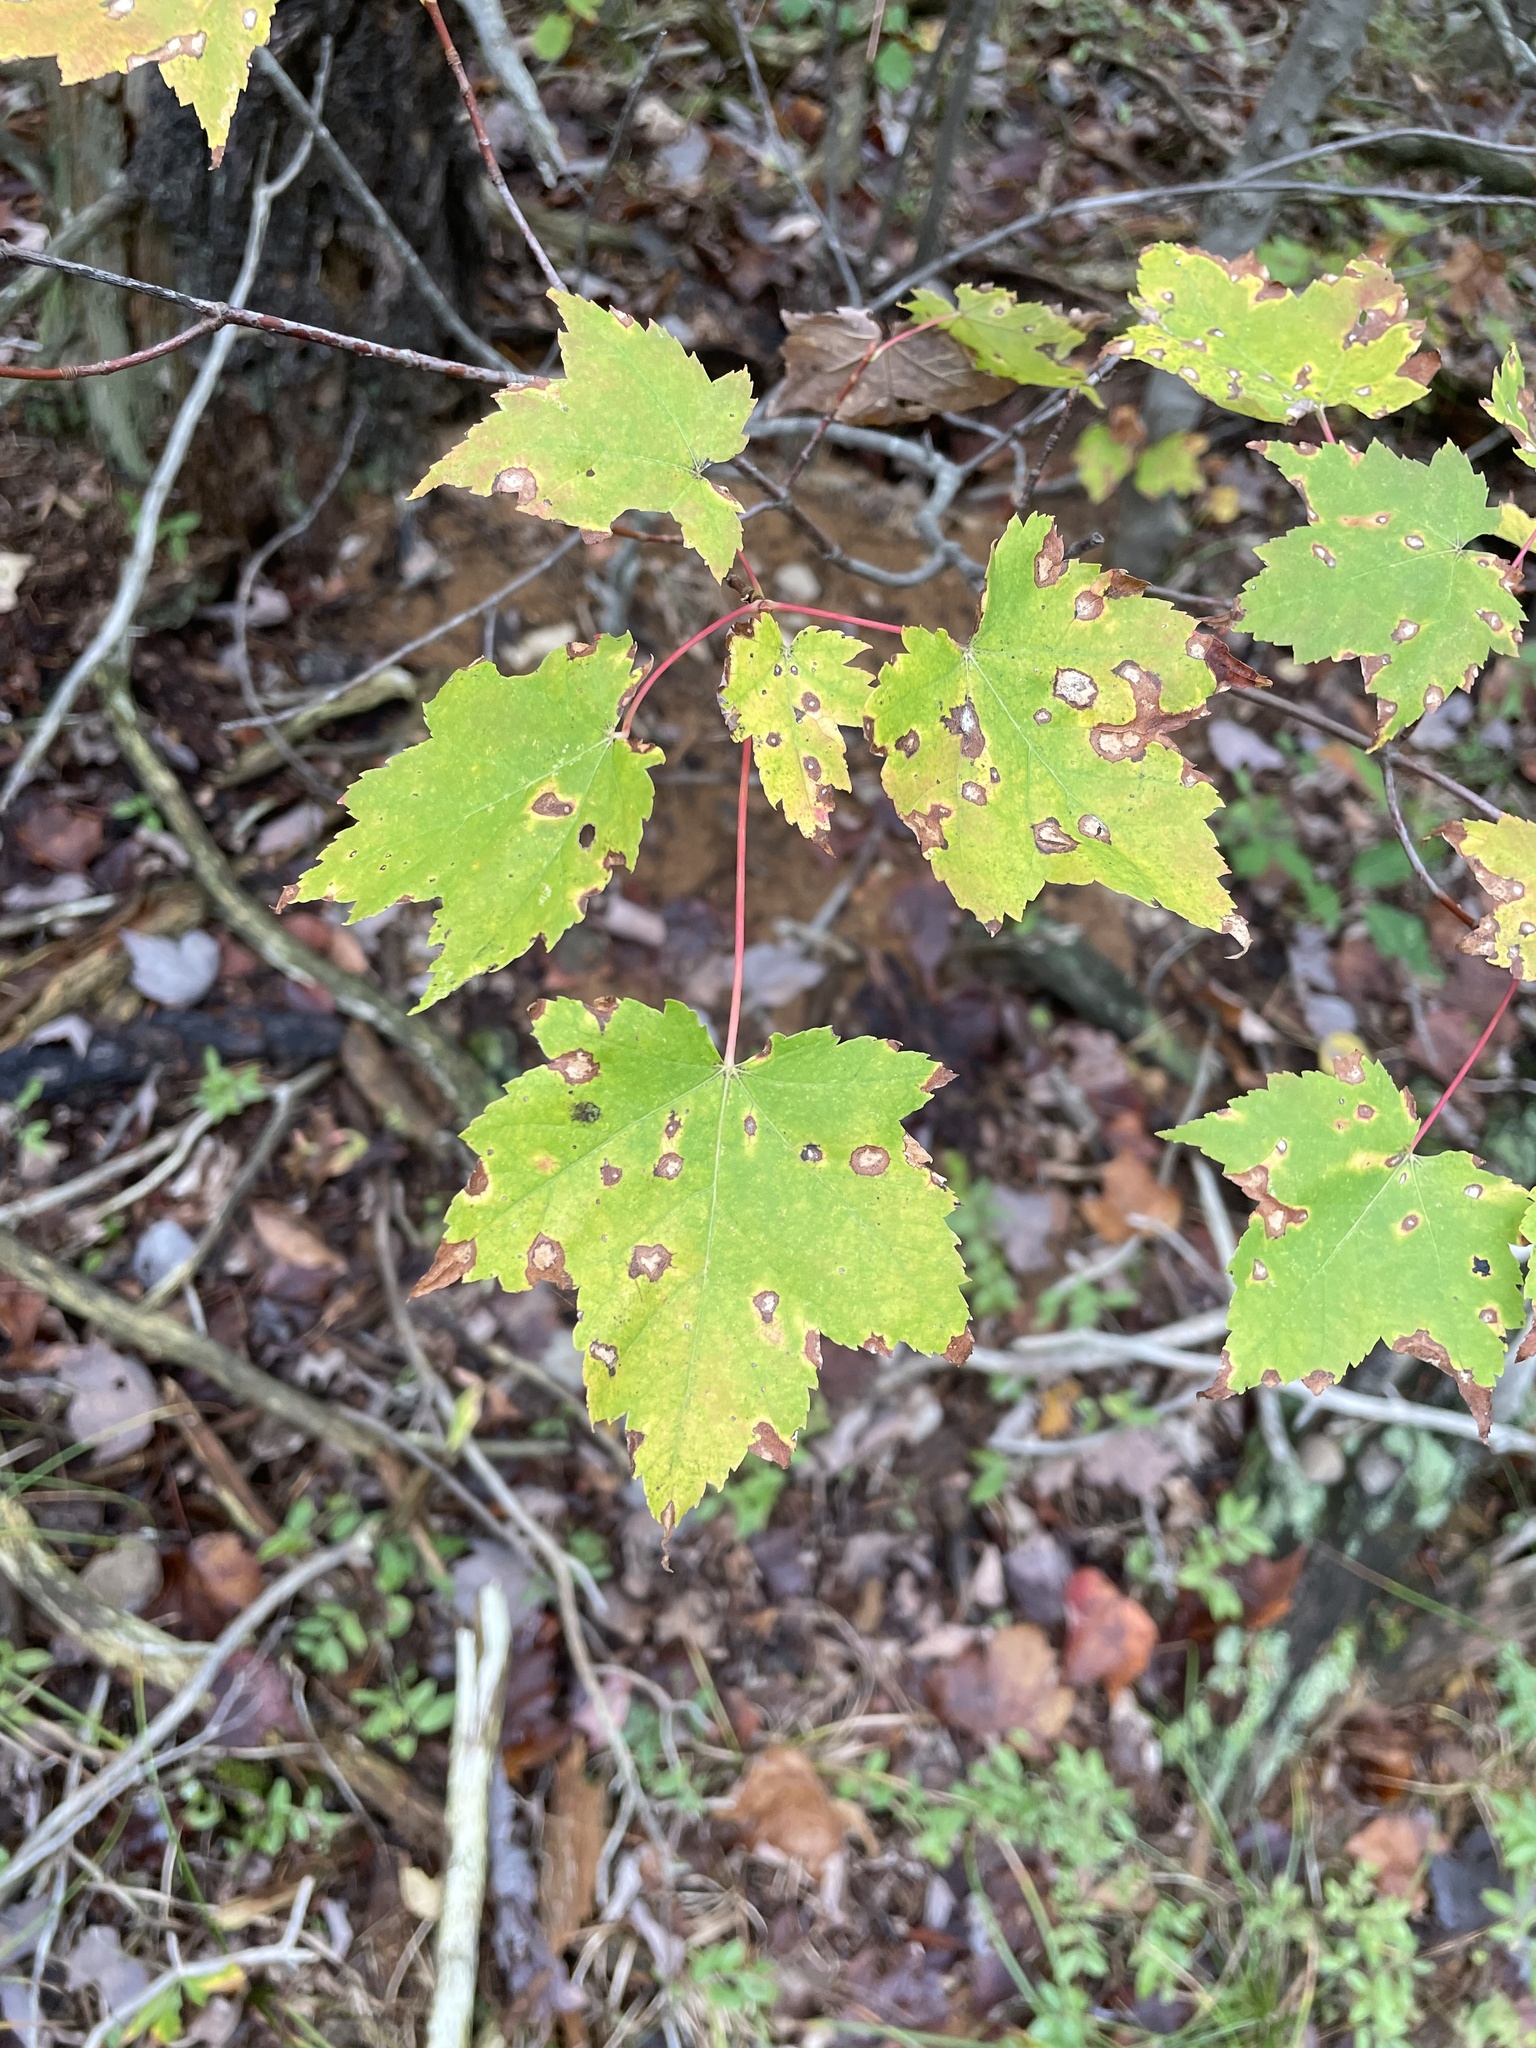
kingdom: Plantae
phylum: Tracheophyta
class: Magnoliopsida
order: Sapindales
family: Sapindaceae
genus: Acer
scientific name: Acer rubrum
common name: Red maple
